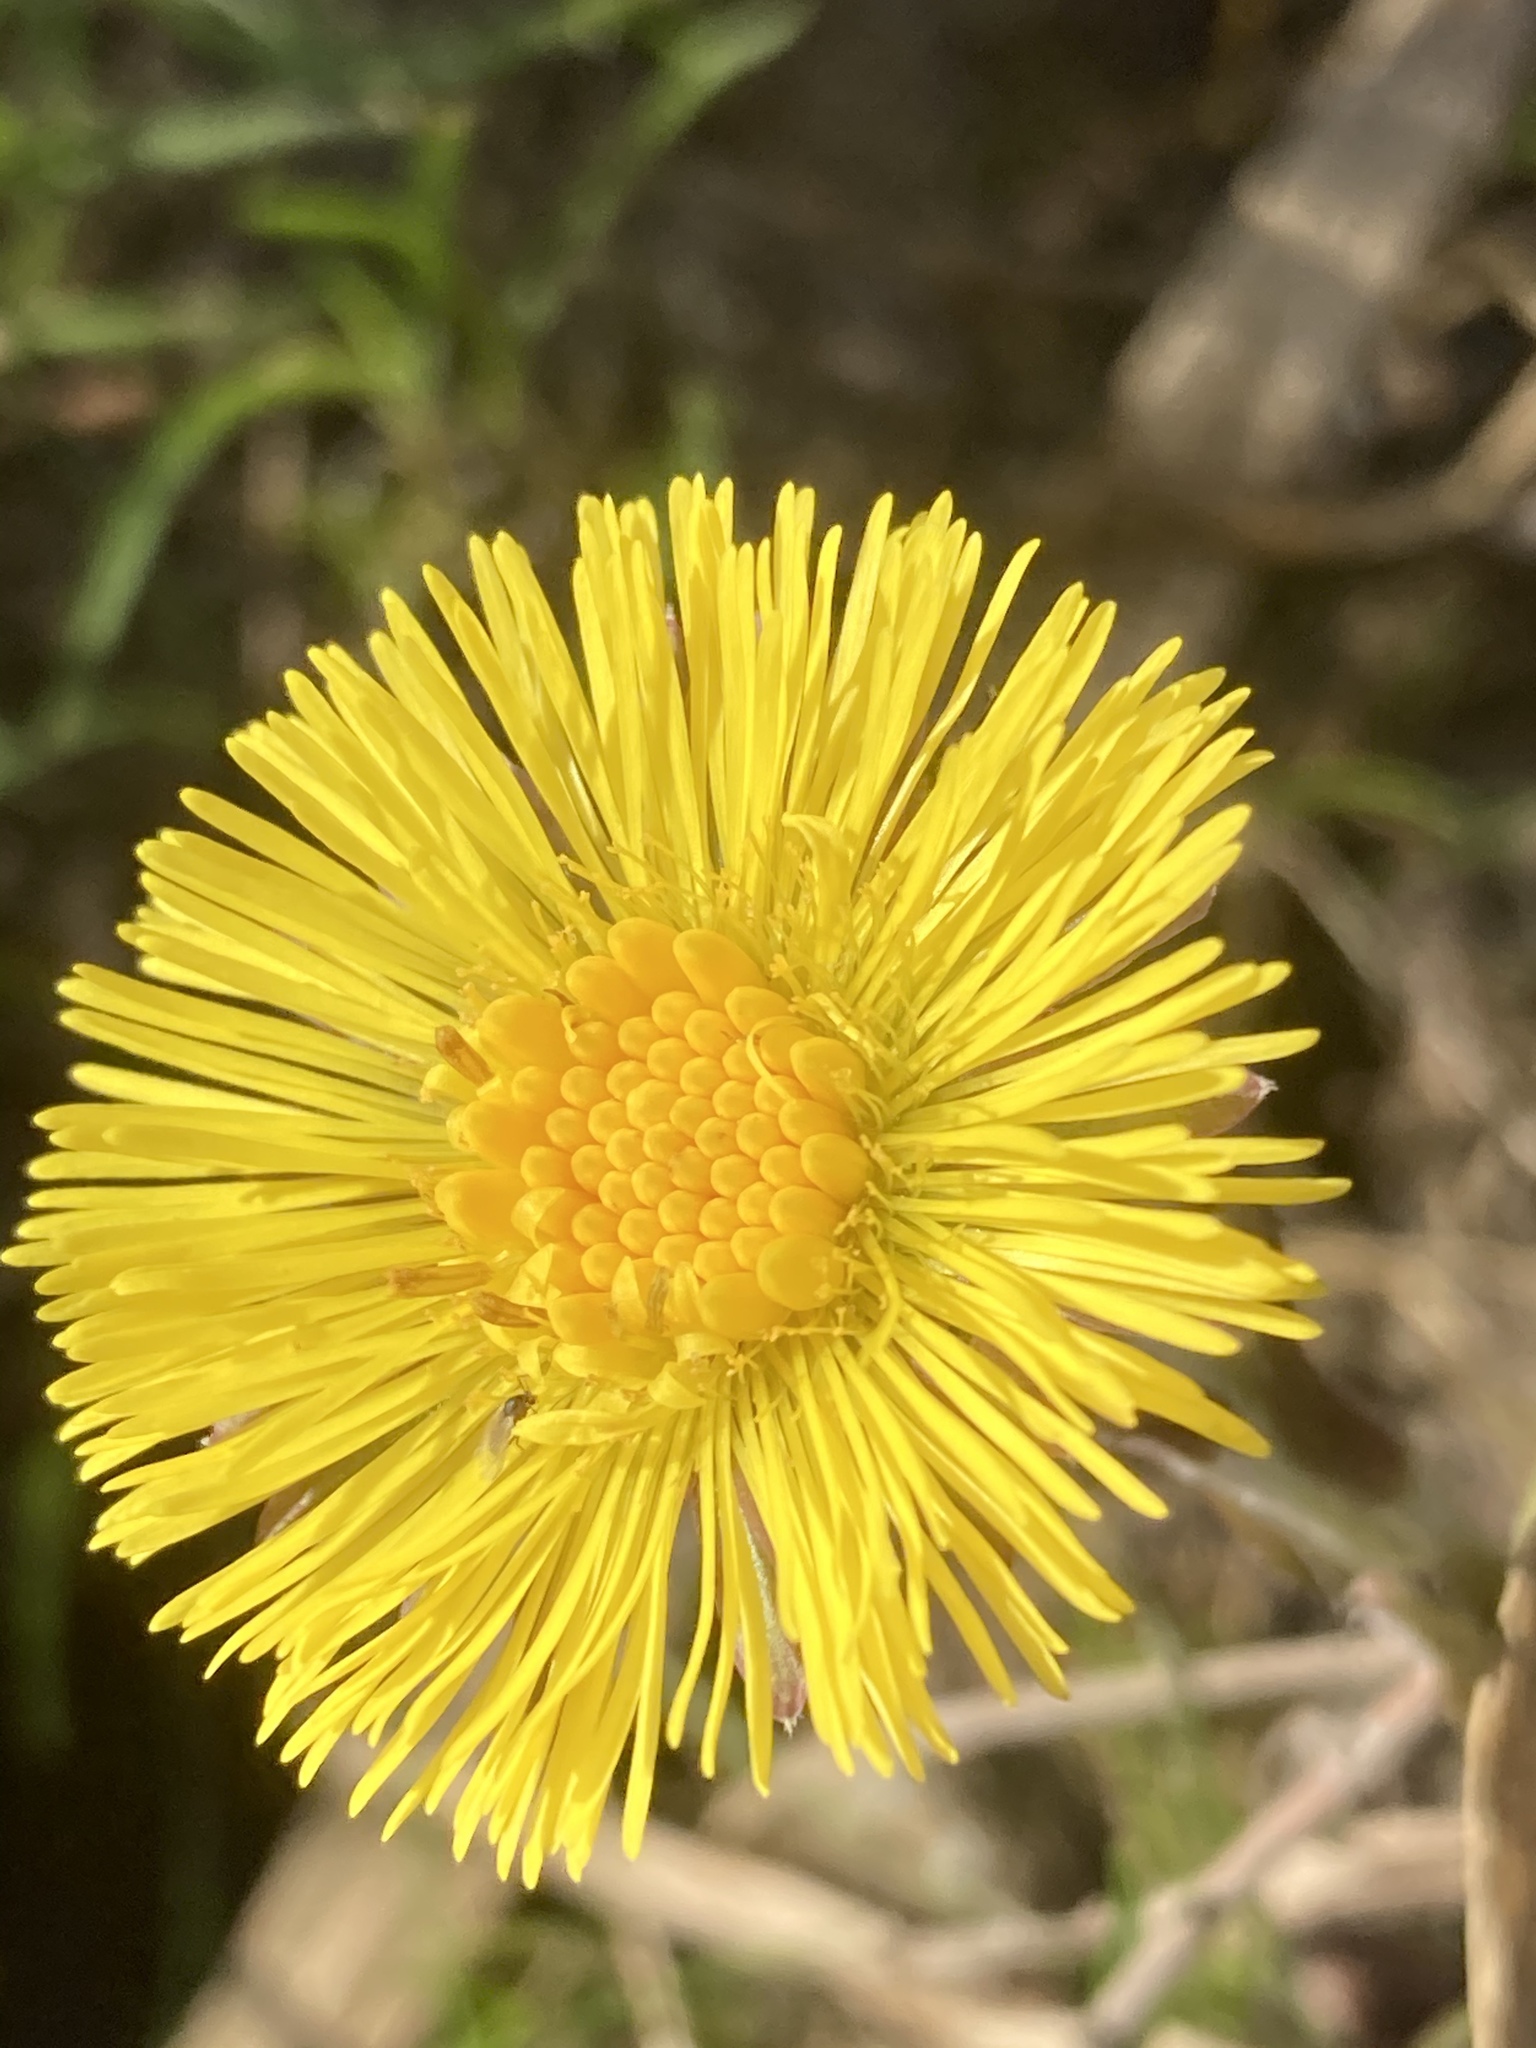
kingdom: Plantae
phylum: Tracheophyta
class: Magnoliopsida
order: Asterales
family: Asteraceae
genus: Tussilago
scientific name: Tussilago farfara
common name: Coltsfoot
